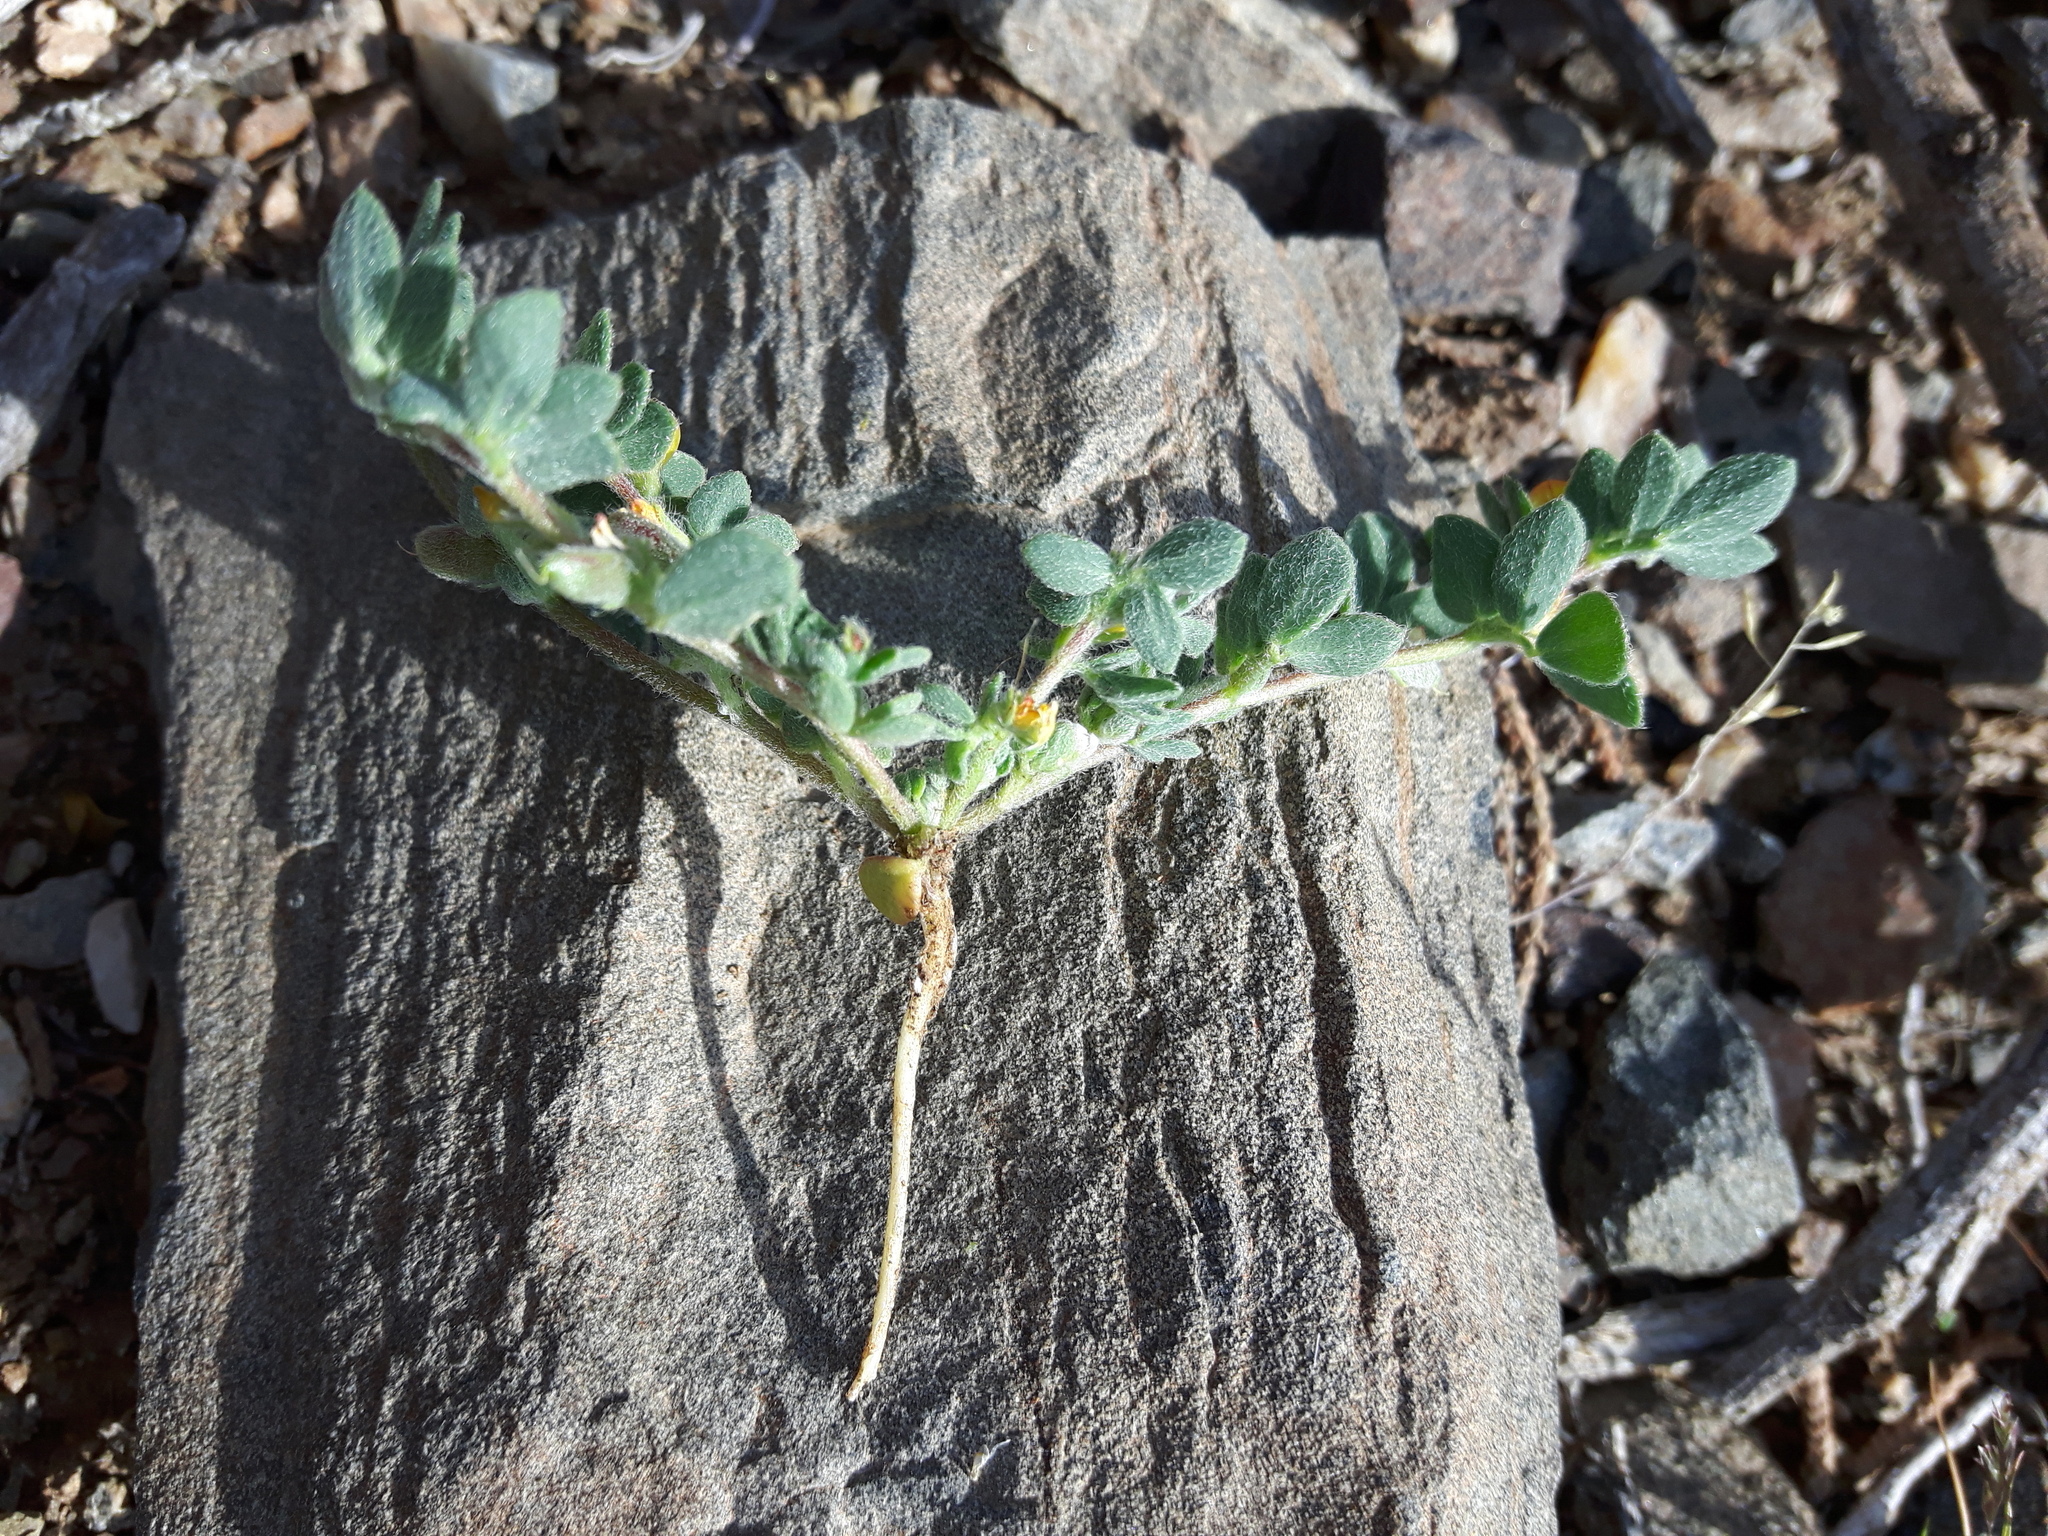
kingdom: Plantae
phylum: Tracheophyta
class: Magnoliopsida
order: Fabales
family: Fabaceae
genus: Acmispon
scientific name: Acmispon brachycarpus
